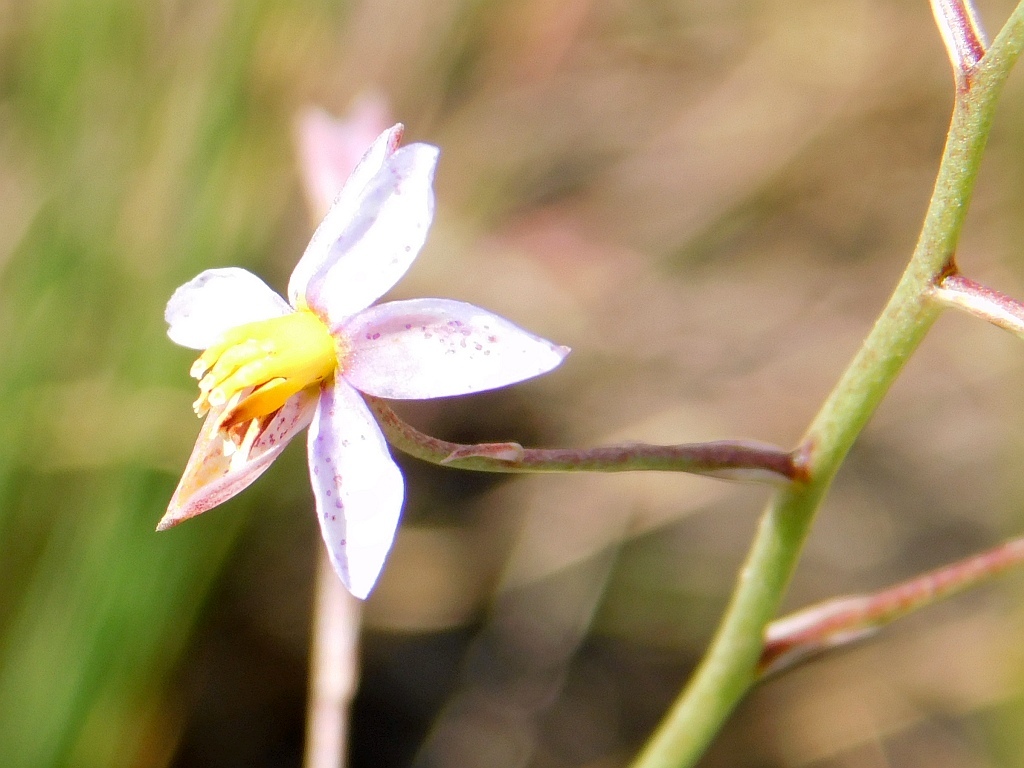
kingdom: Plantae
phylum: Tracheophyta
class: Liliopsida
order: Asparagales
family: Tecophilaeaceae
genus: Cyanella
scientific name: Cyanella hyacinthoides
